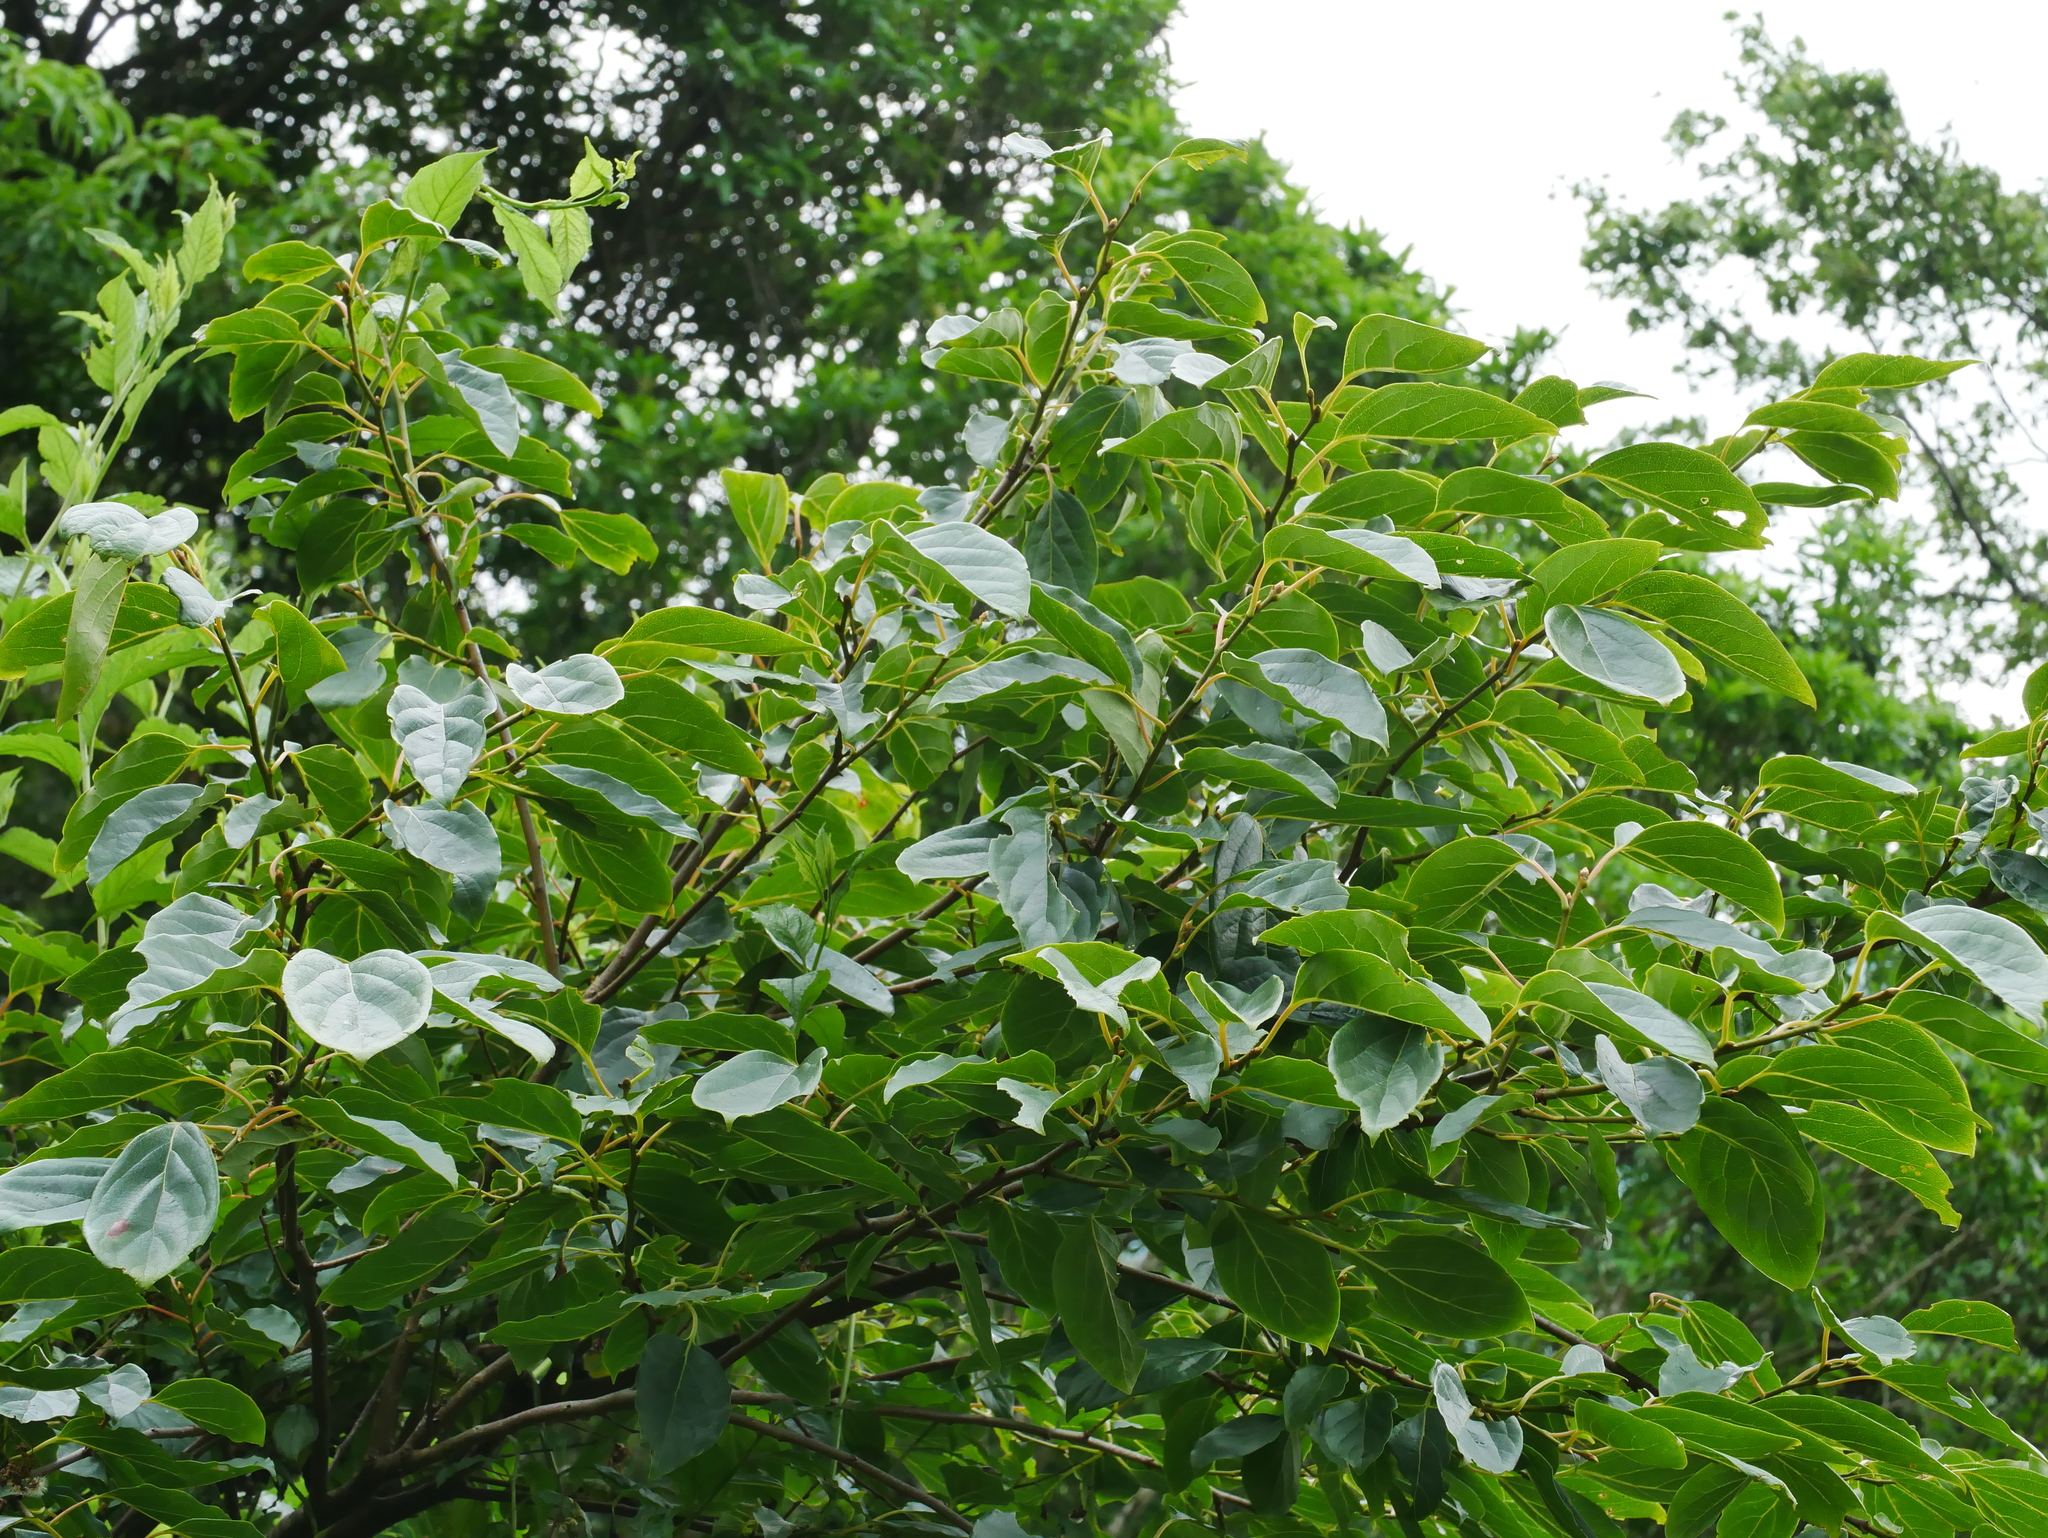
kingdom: Plantae
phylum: Tracheophyta
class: Magnoliopsida
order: Ericales
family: Ebenaceae
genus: Diospyros
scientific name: Diospyros oldhamii
